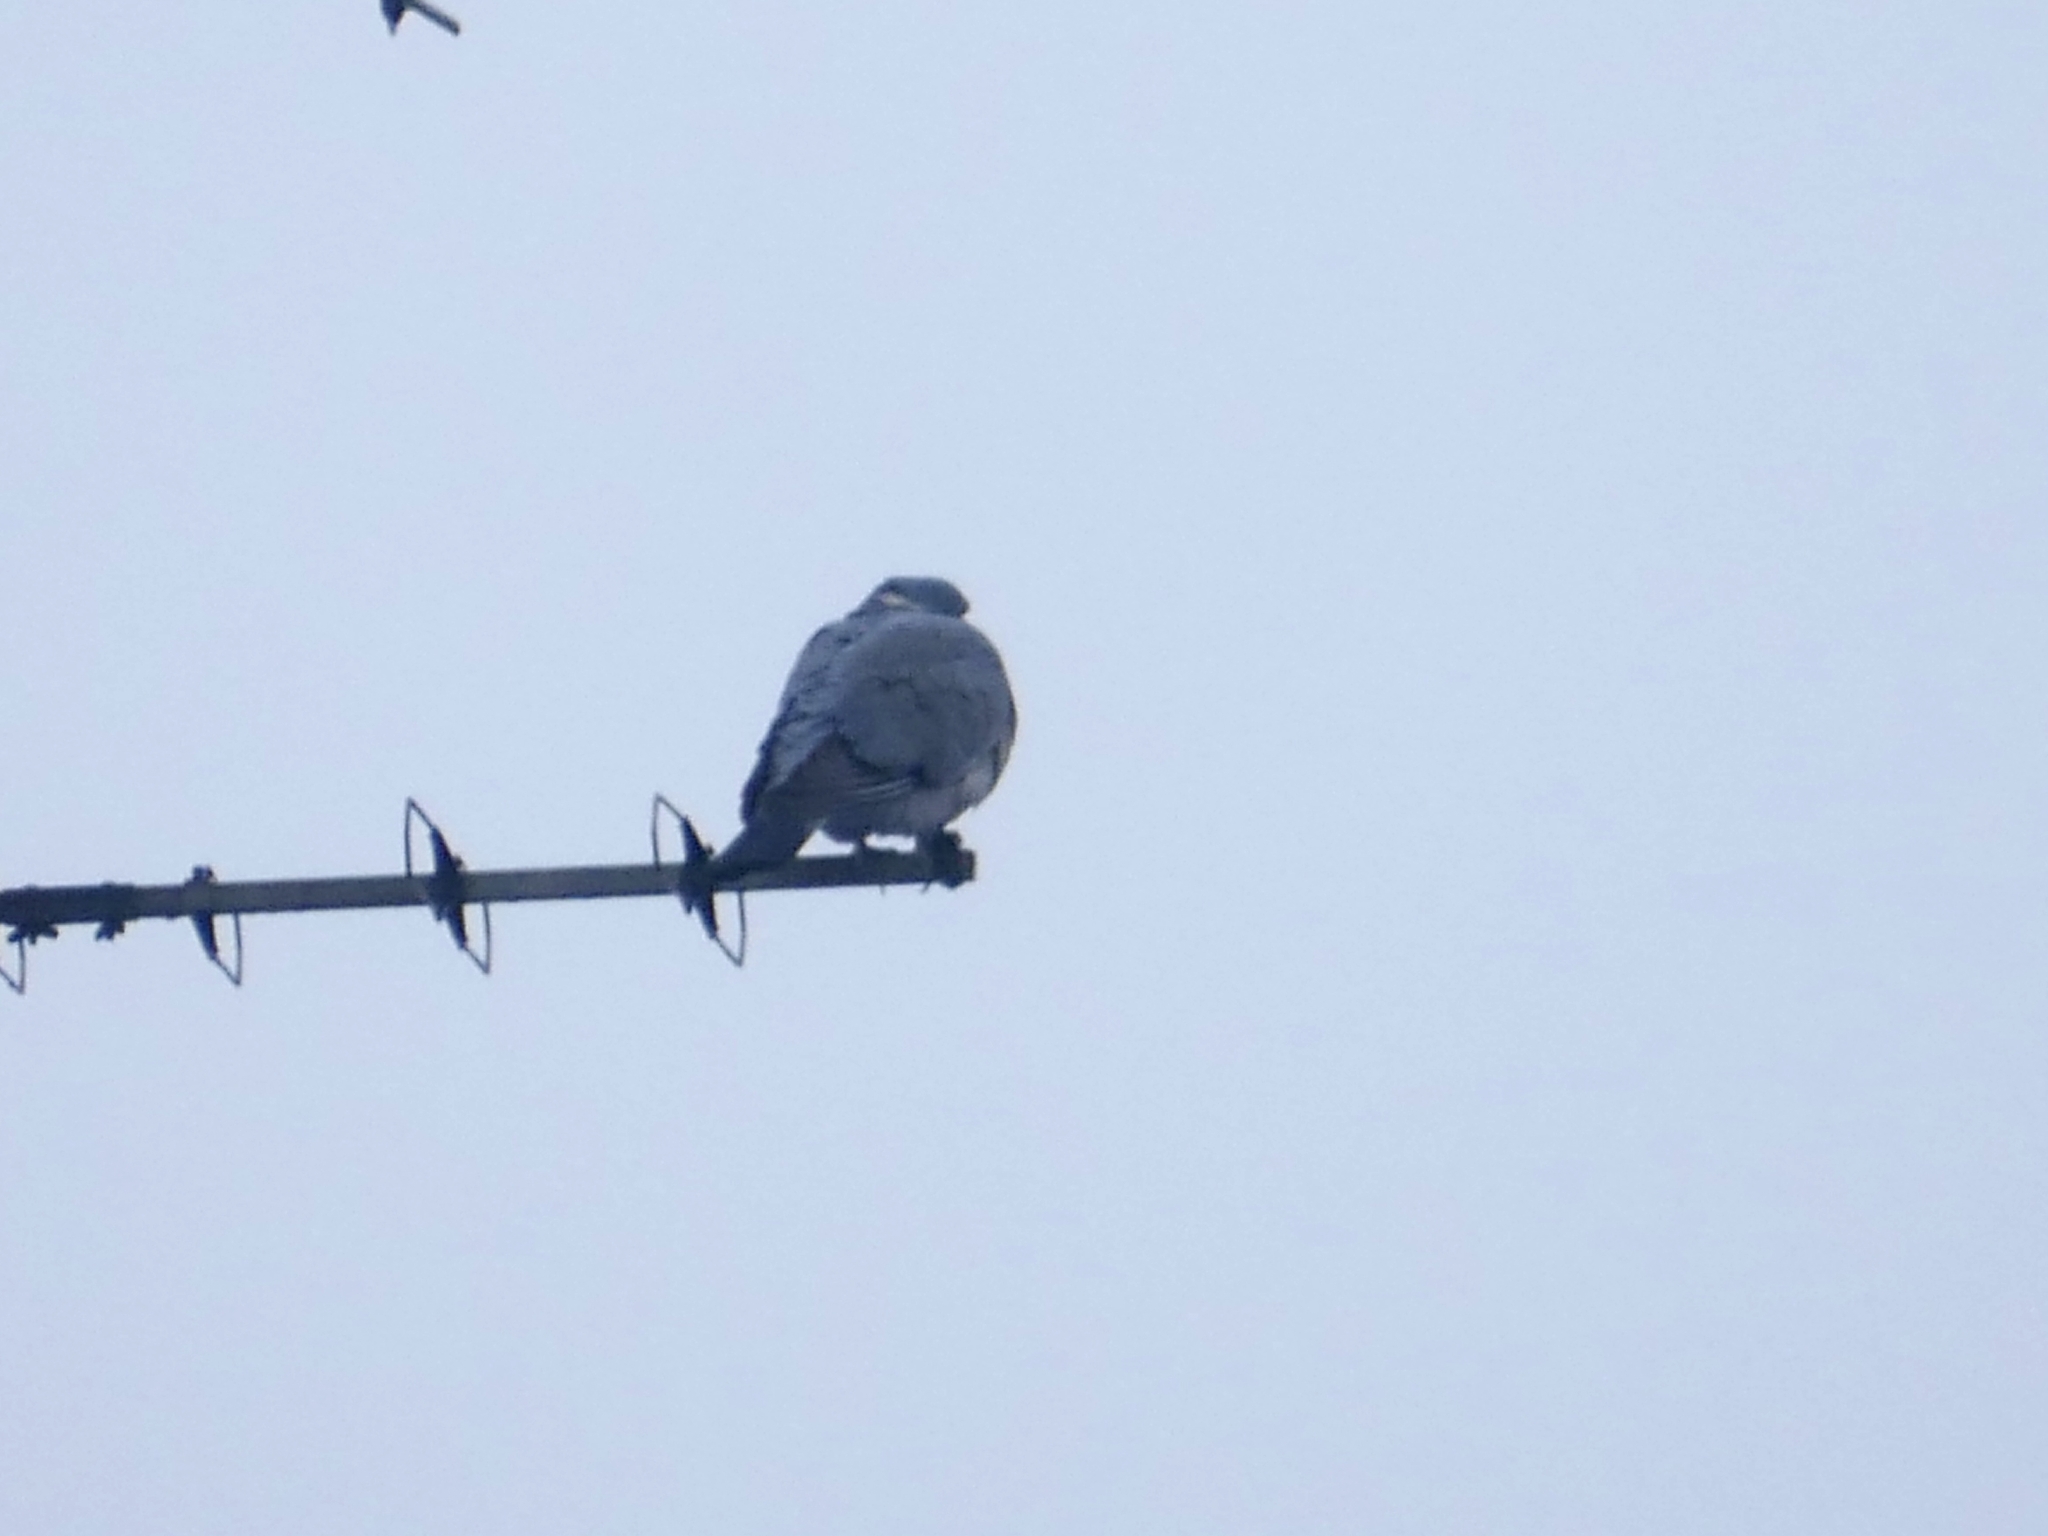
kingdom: Animalia
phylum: Chordata
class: Aves
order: Columbiformes
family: Columbidae
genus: Columba
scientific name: Columba palumbus
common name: Common wood pigeon
